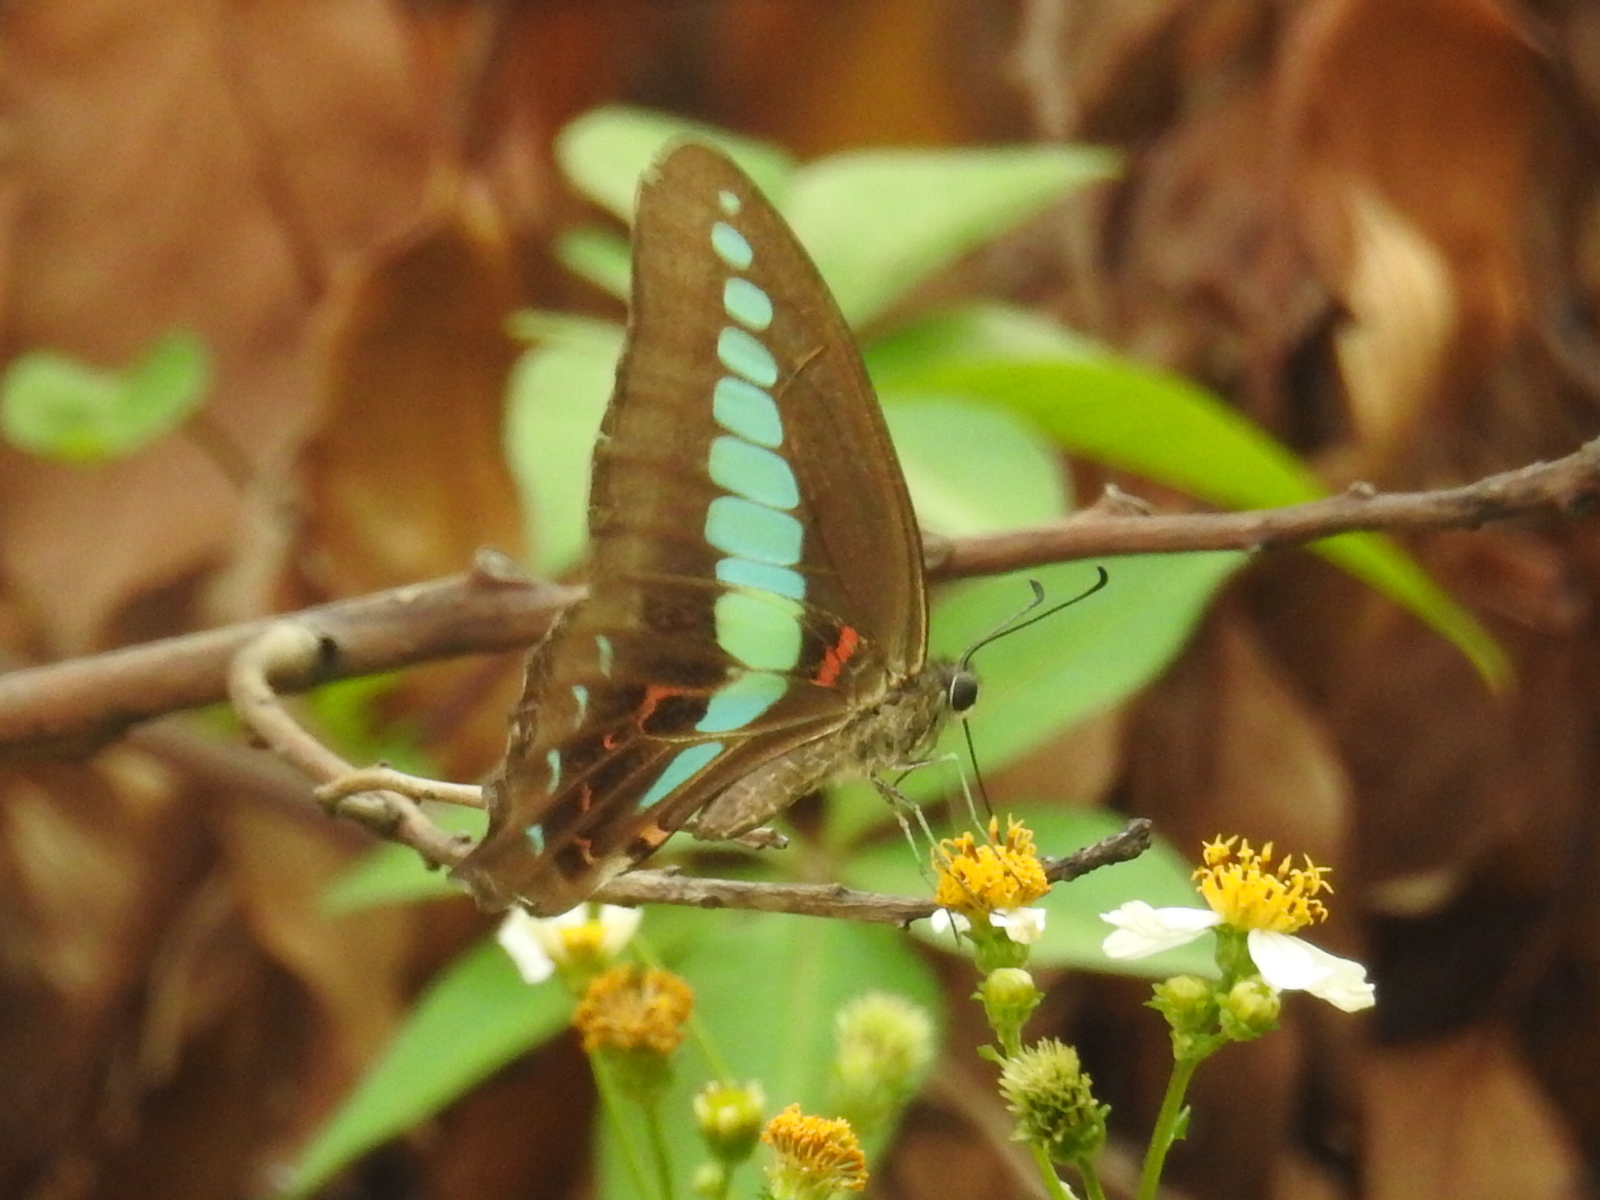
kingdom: Fungi
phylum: Ascomycota
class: Sordariomycetes
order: Microascales
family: Microascaceae
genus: Graphium
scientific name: Graphium sarpedon
